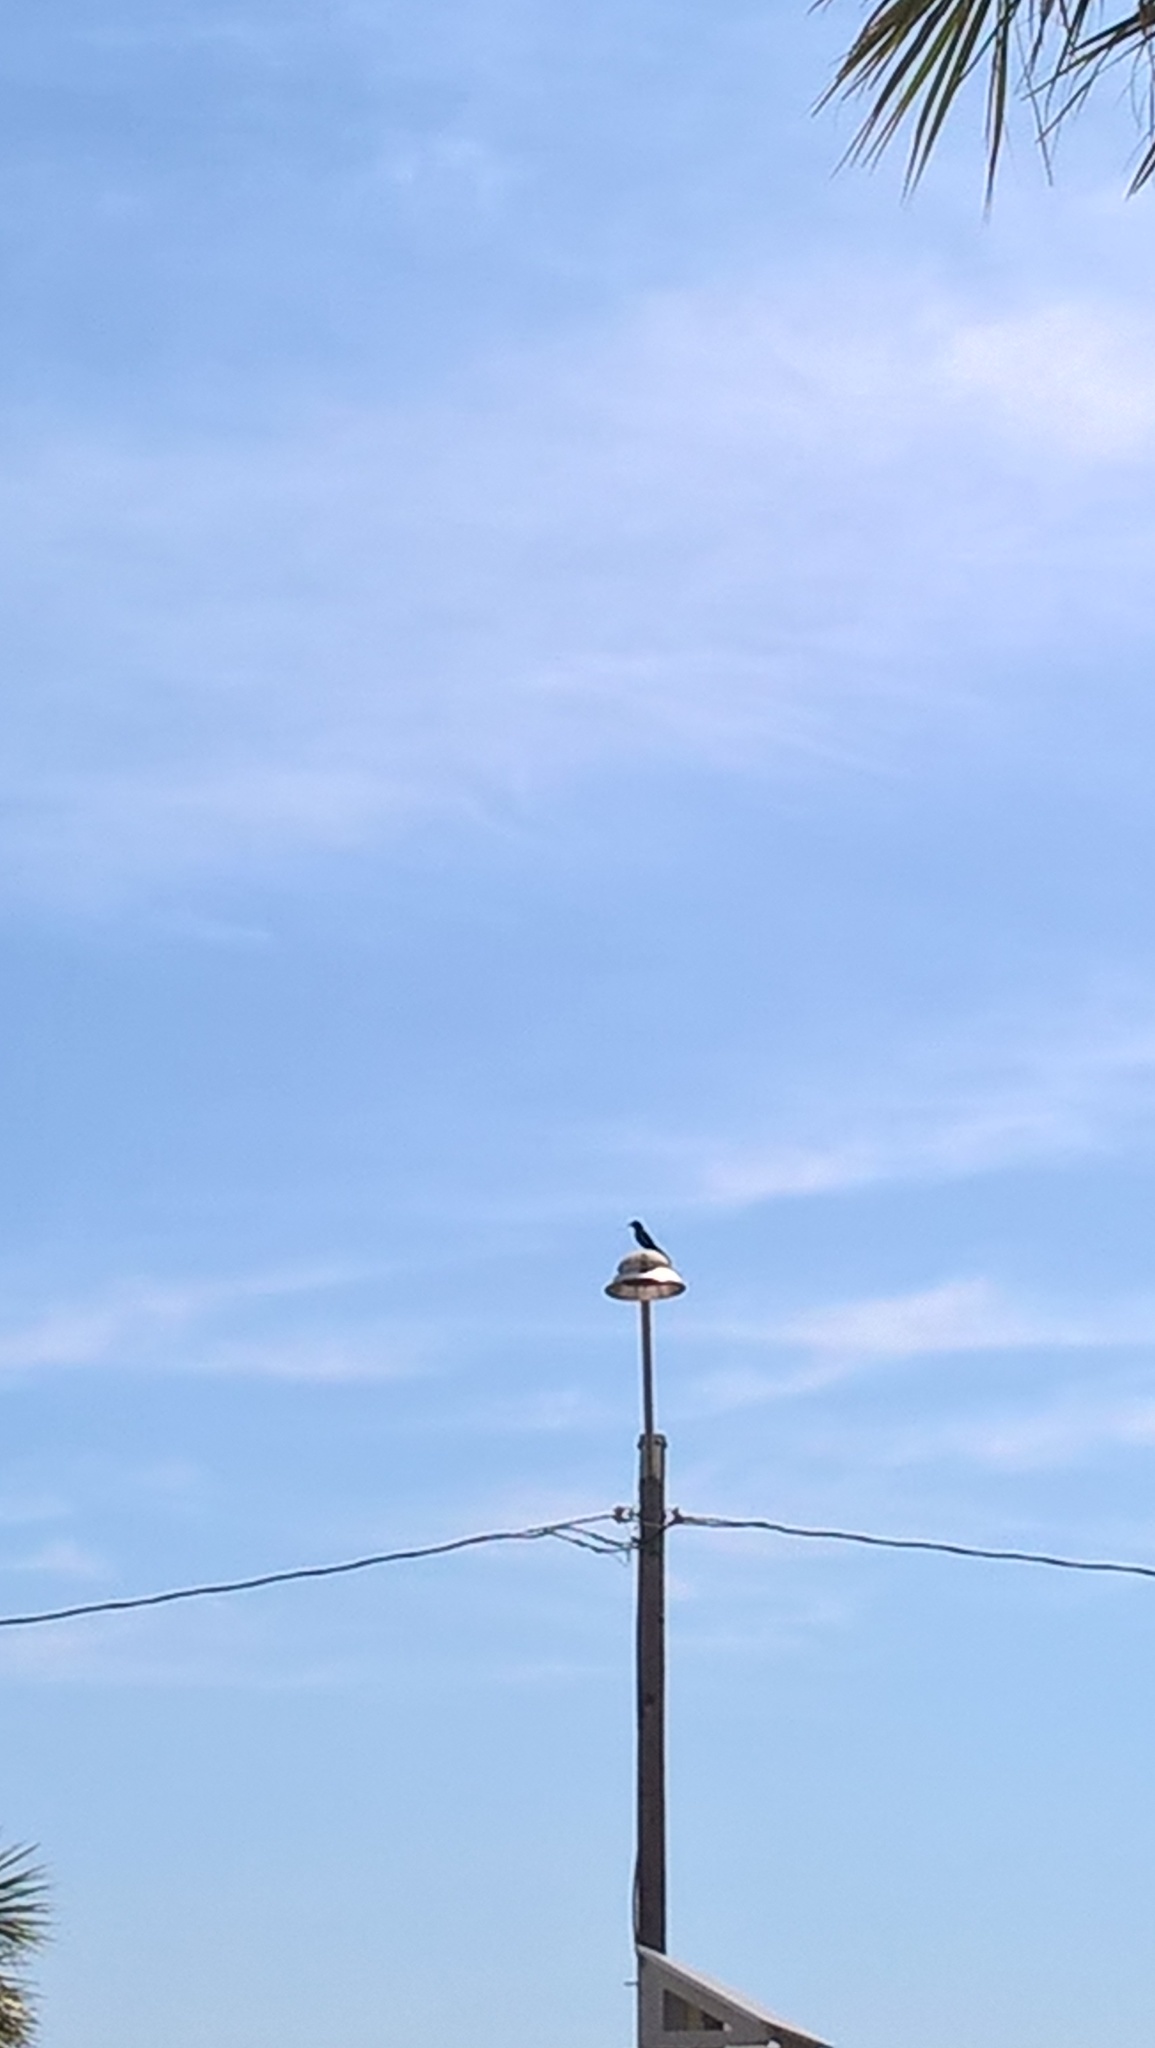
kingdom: Animalia
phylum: Chordata
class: Aves
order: Passeriformes
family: Icteridae
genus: Quiscalus
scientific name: Quiscalus major
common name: Boat-tailed grackle
